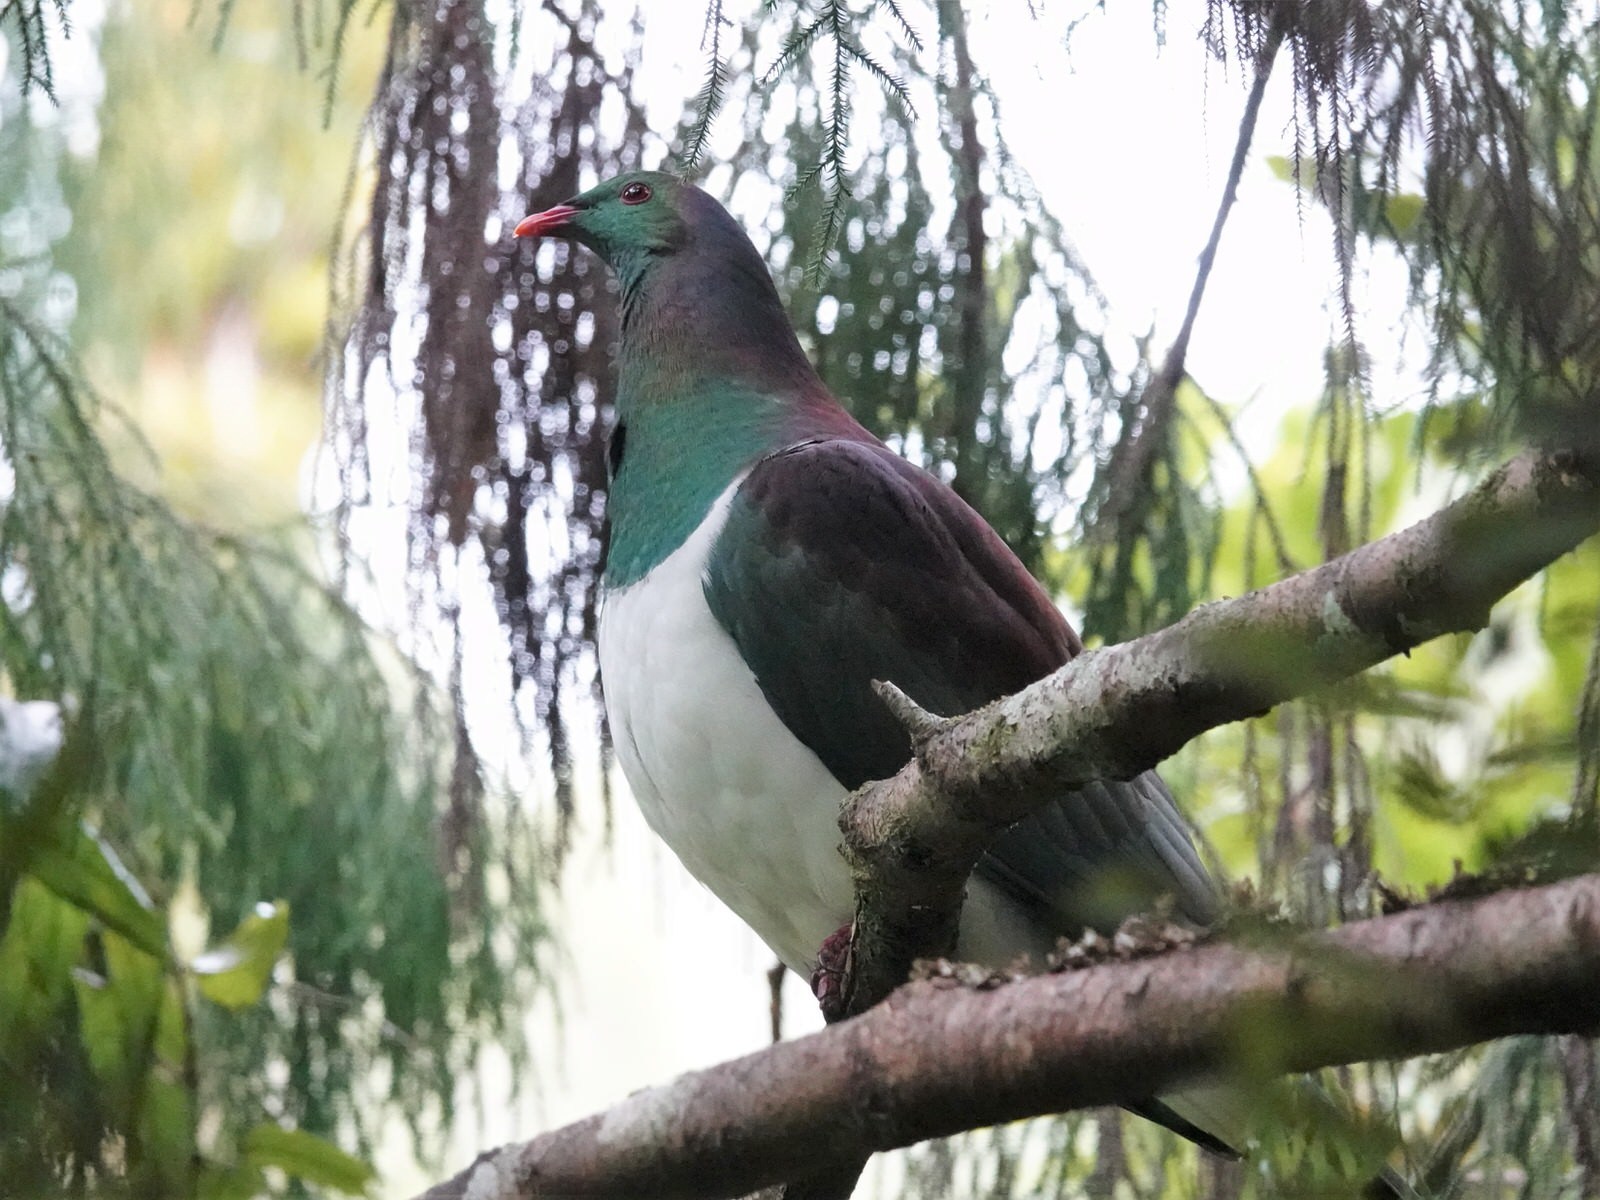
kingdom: Animalia
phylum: Chordata
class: Aves
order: Columbiformes
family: Columbidae
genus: Hemiphaga
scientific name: Hemiphaga novaeseelandiae
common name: New zealand pigeon
